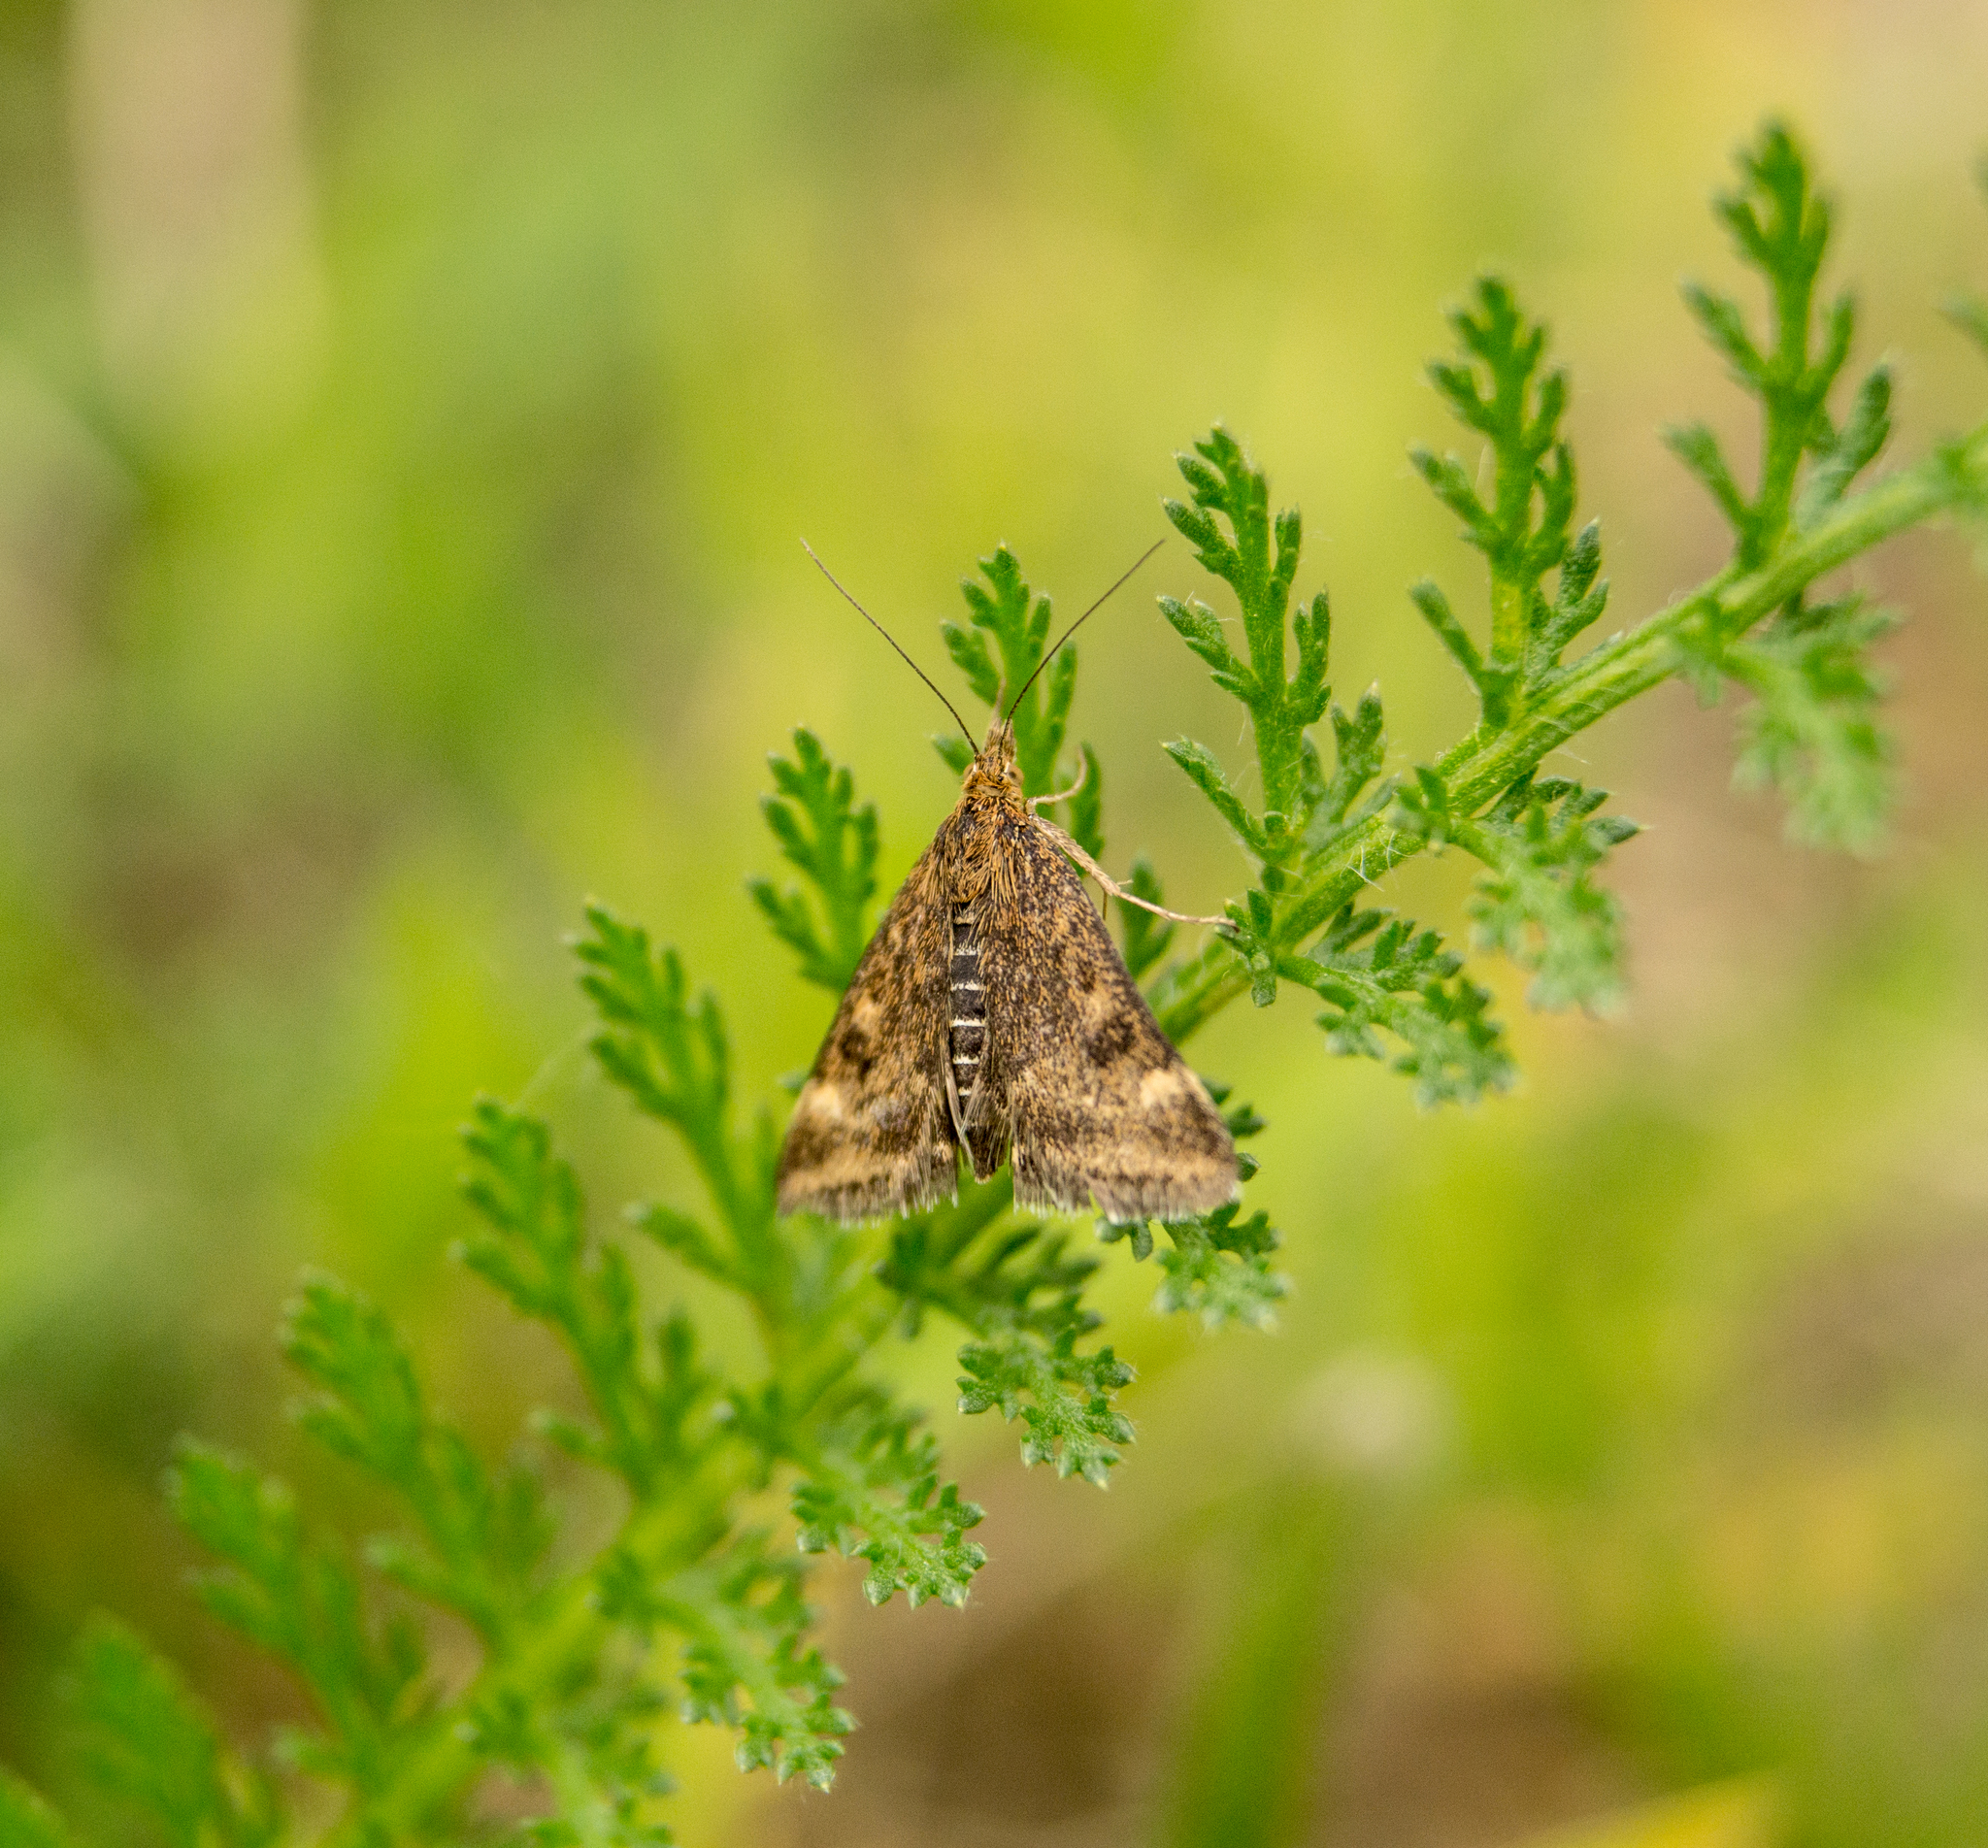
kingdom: Animalia
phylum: Arthropoda
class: Insecta
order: Lepidoptera
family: Crambidae
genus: Pyrausta
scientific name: Pyrausta despicata
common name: Straw-barred pearl
